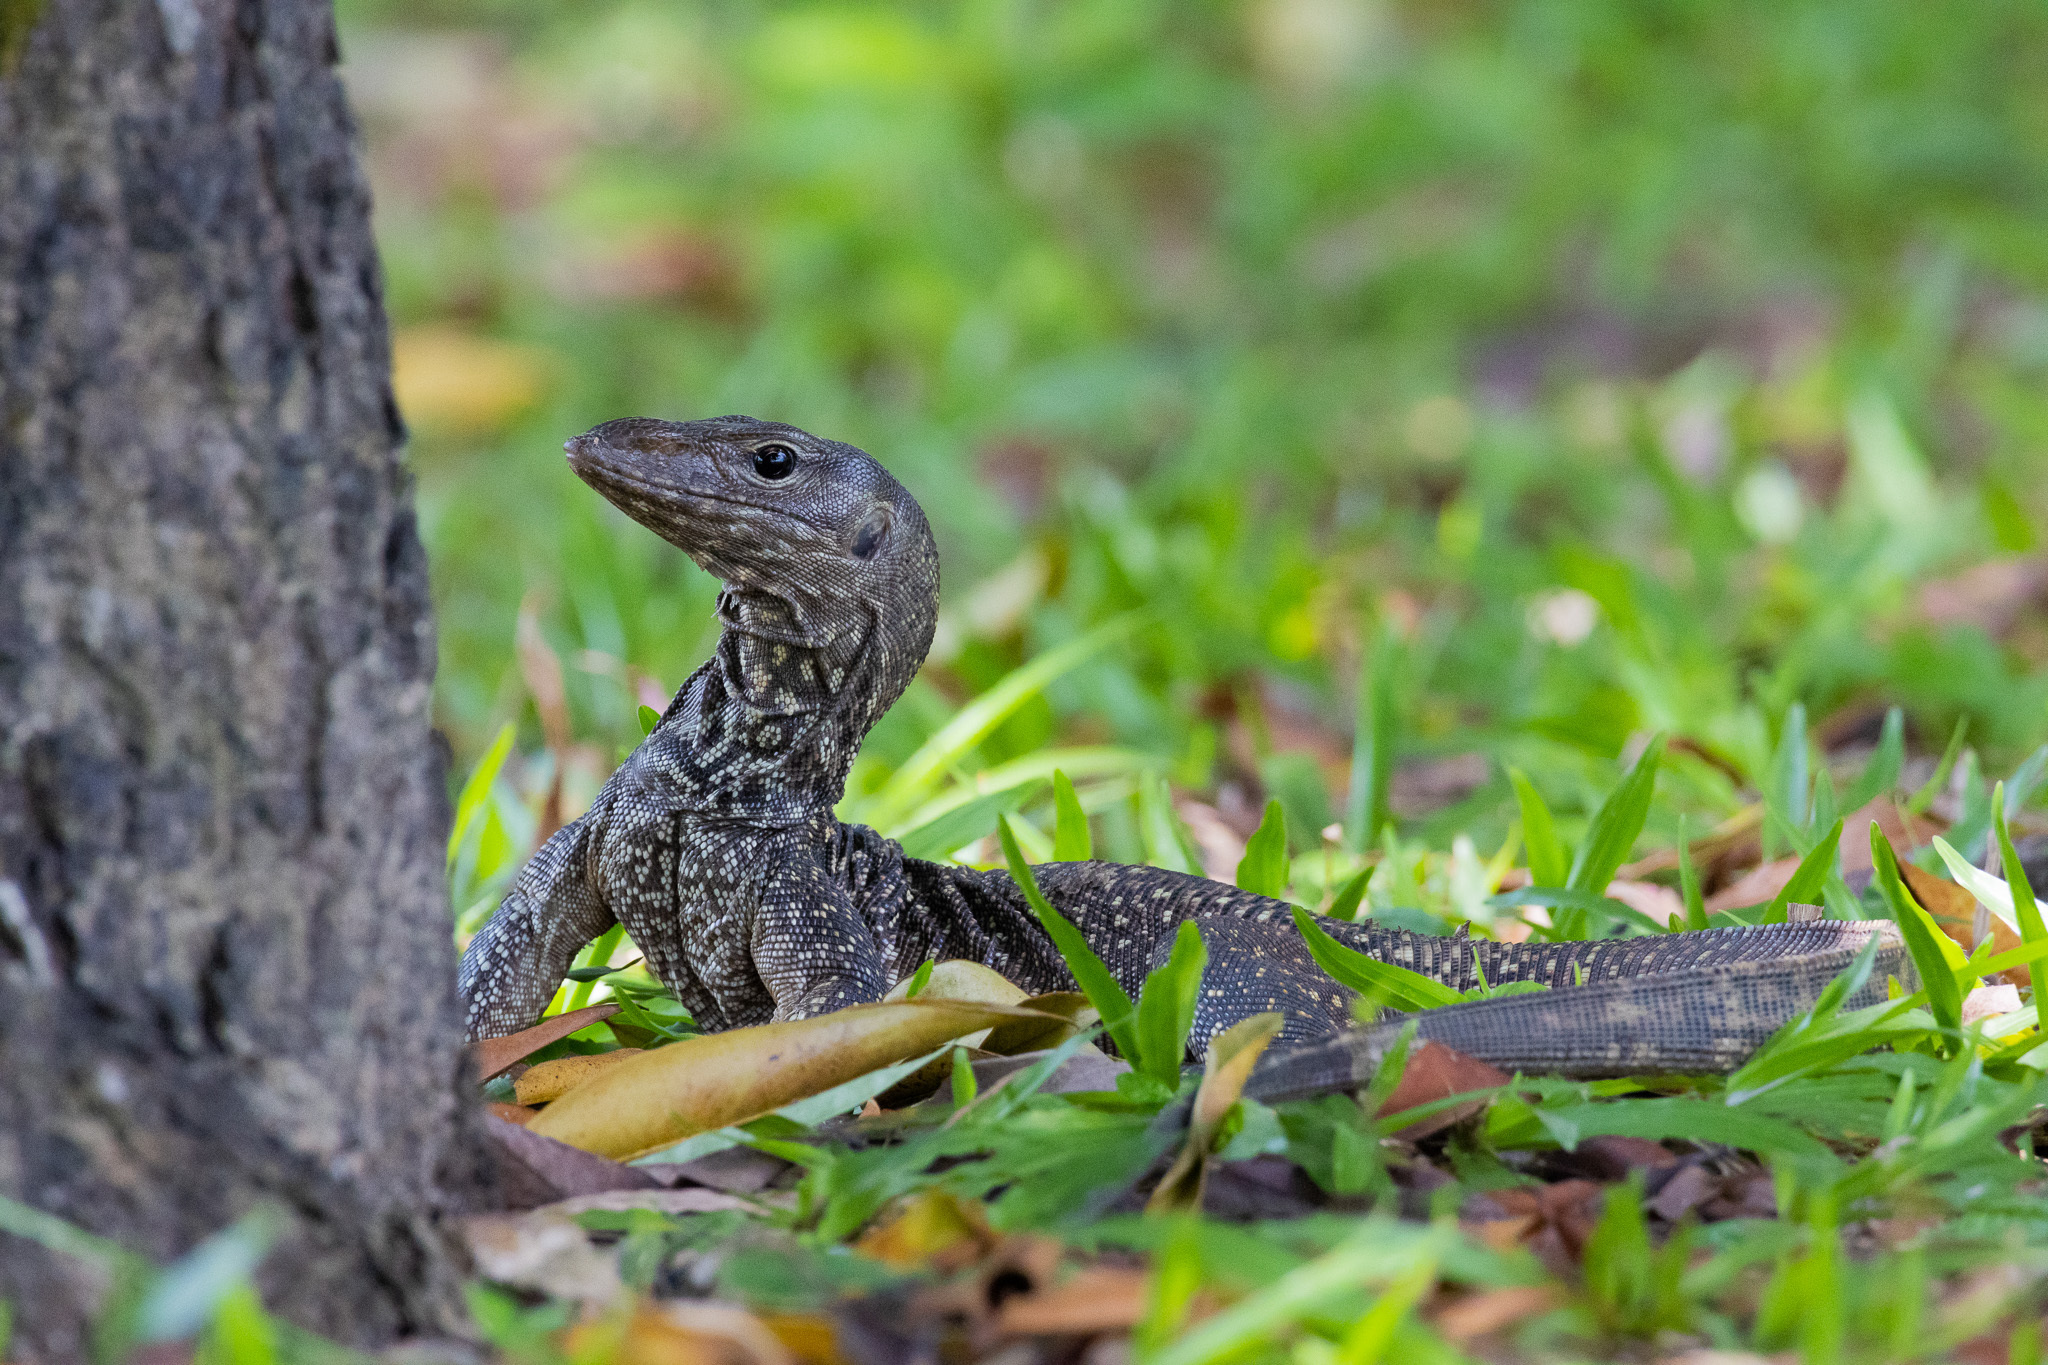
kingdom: Animalia
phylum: Chordata
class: Squamata
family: Varanidae
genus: Varanus
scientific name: Varanus nebulosus
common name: Clouded monitor
